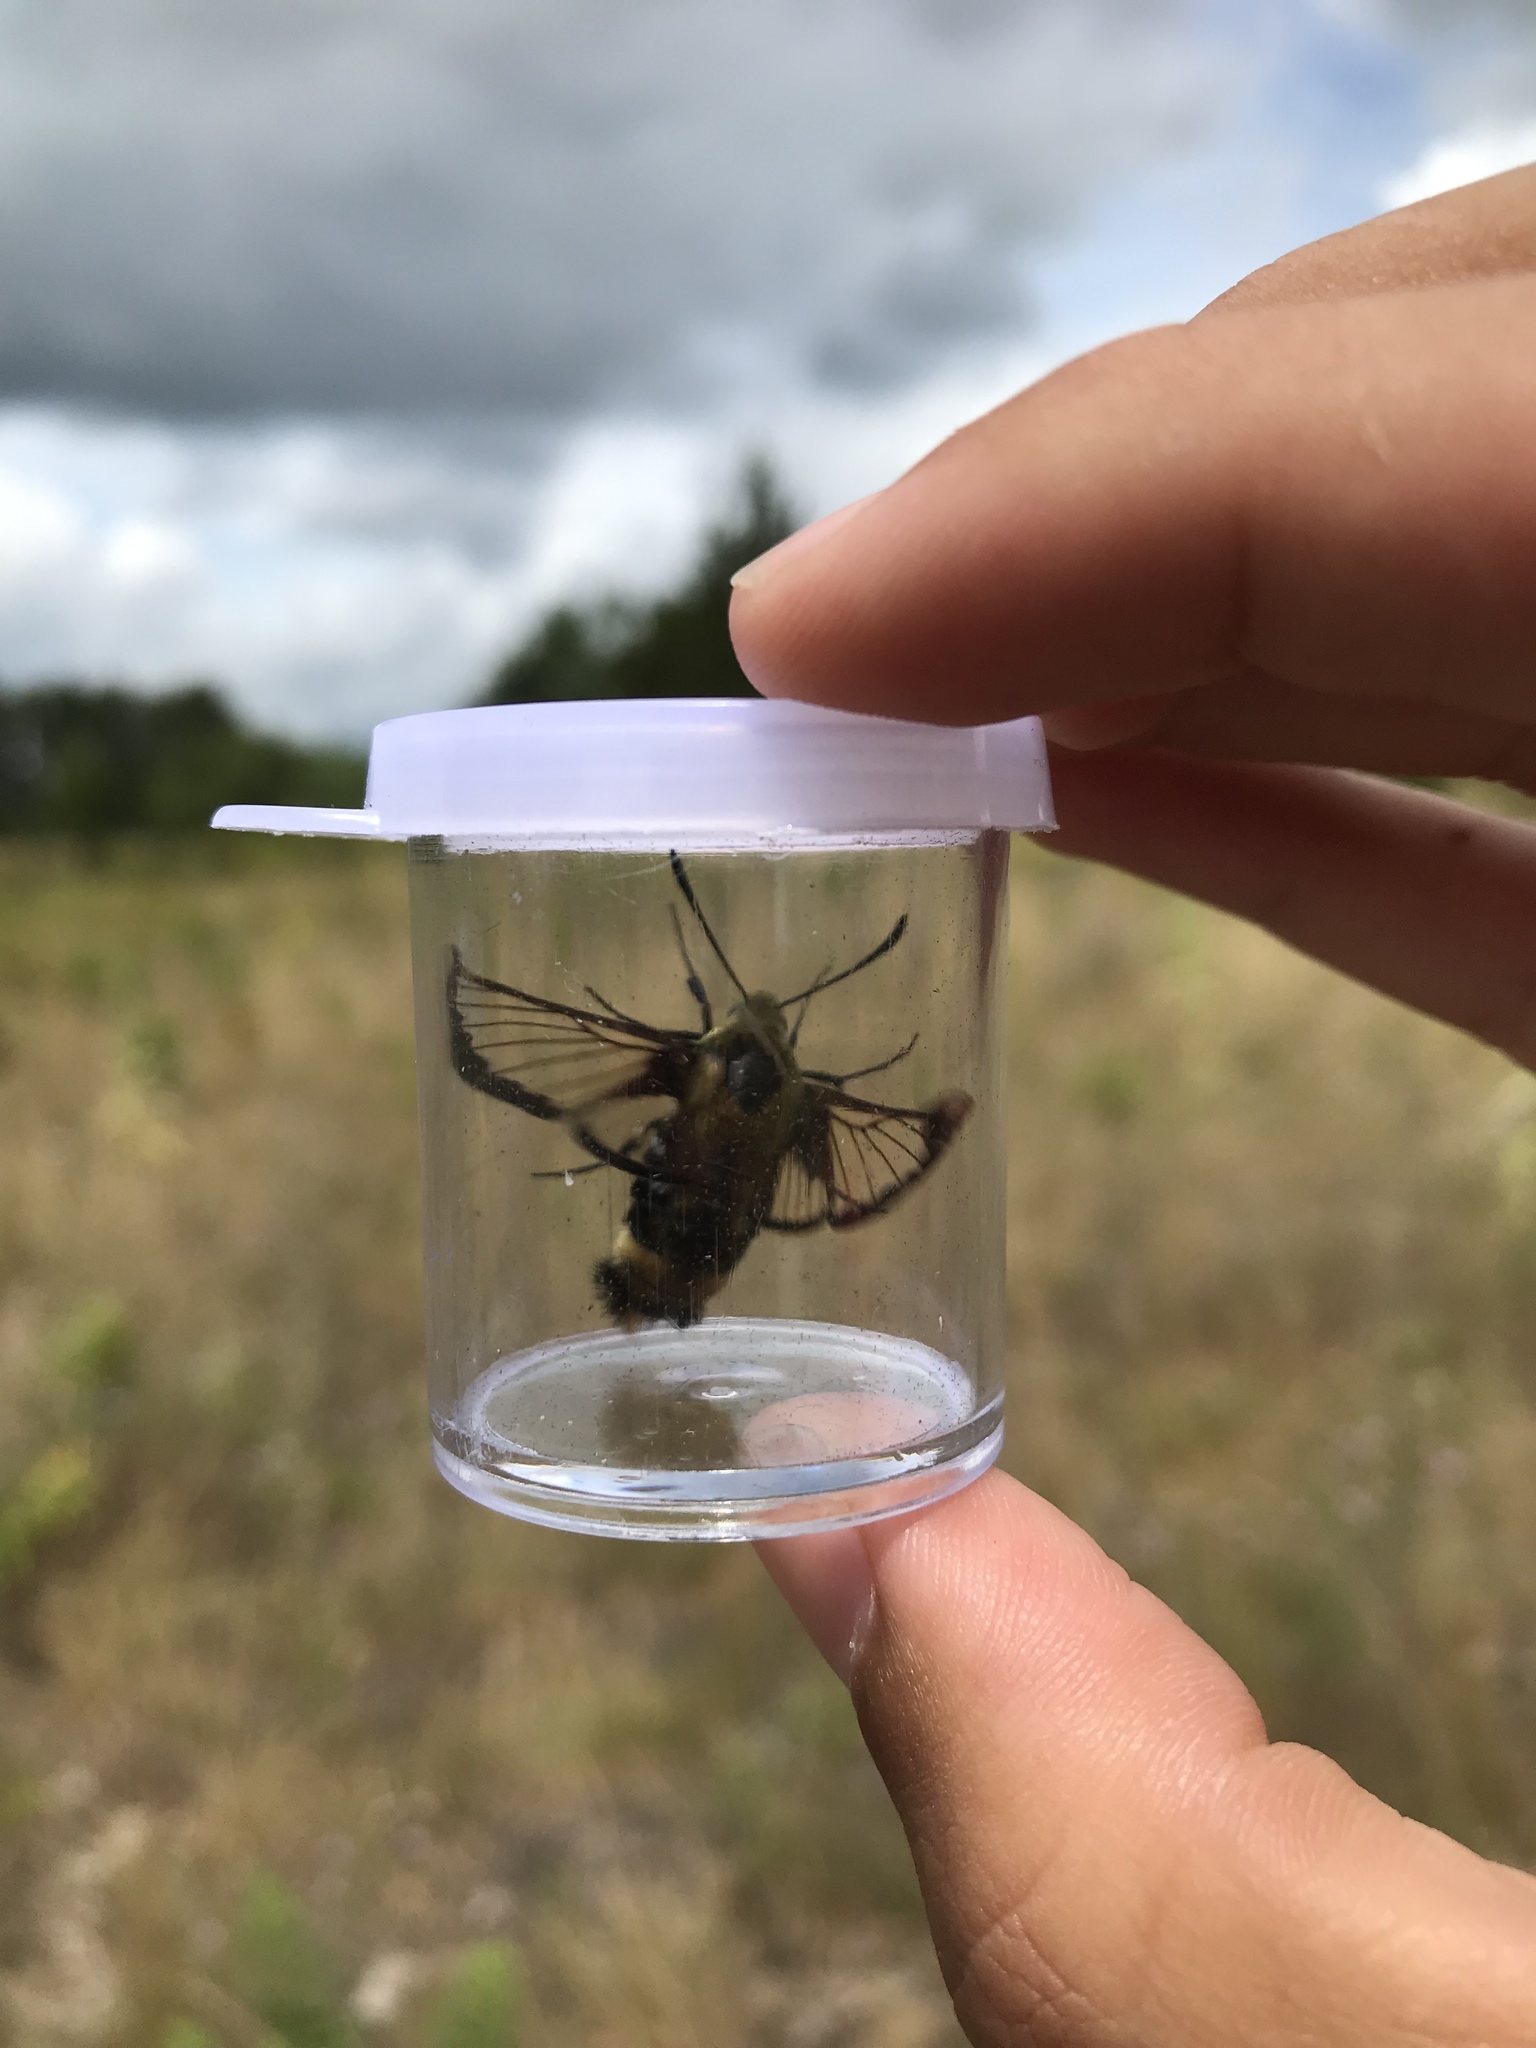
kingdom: Animalia
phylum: Arthropoda
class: Insecta
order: Lepidoptera
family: Sphingidae
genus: Hemaris
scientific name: Hemaris diffinis
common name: Bumblebee moth
